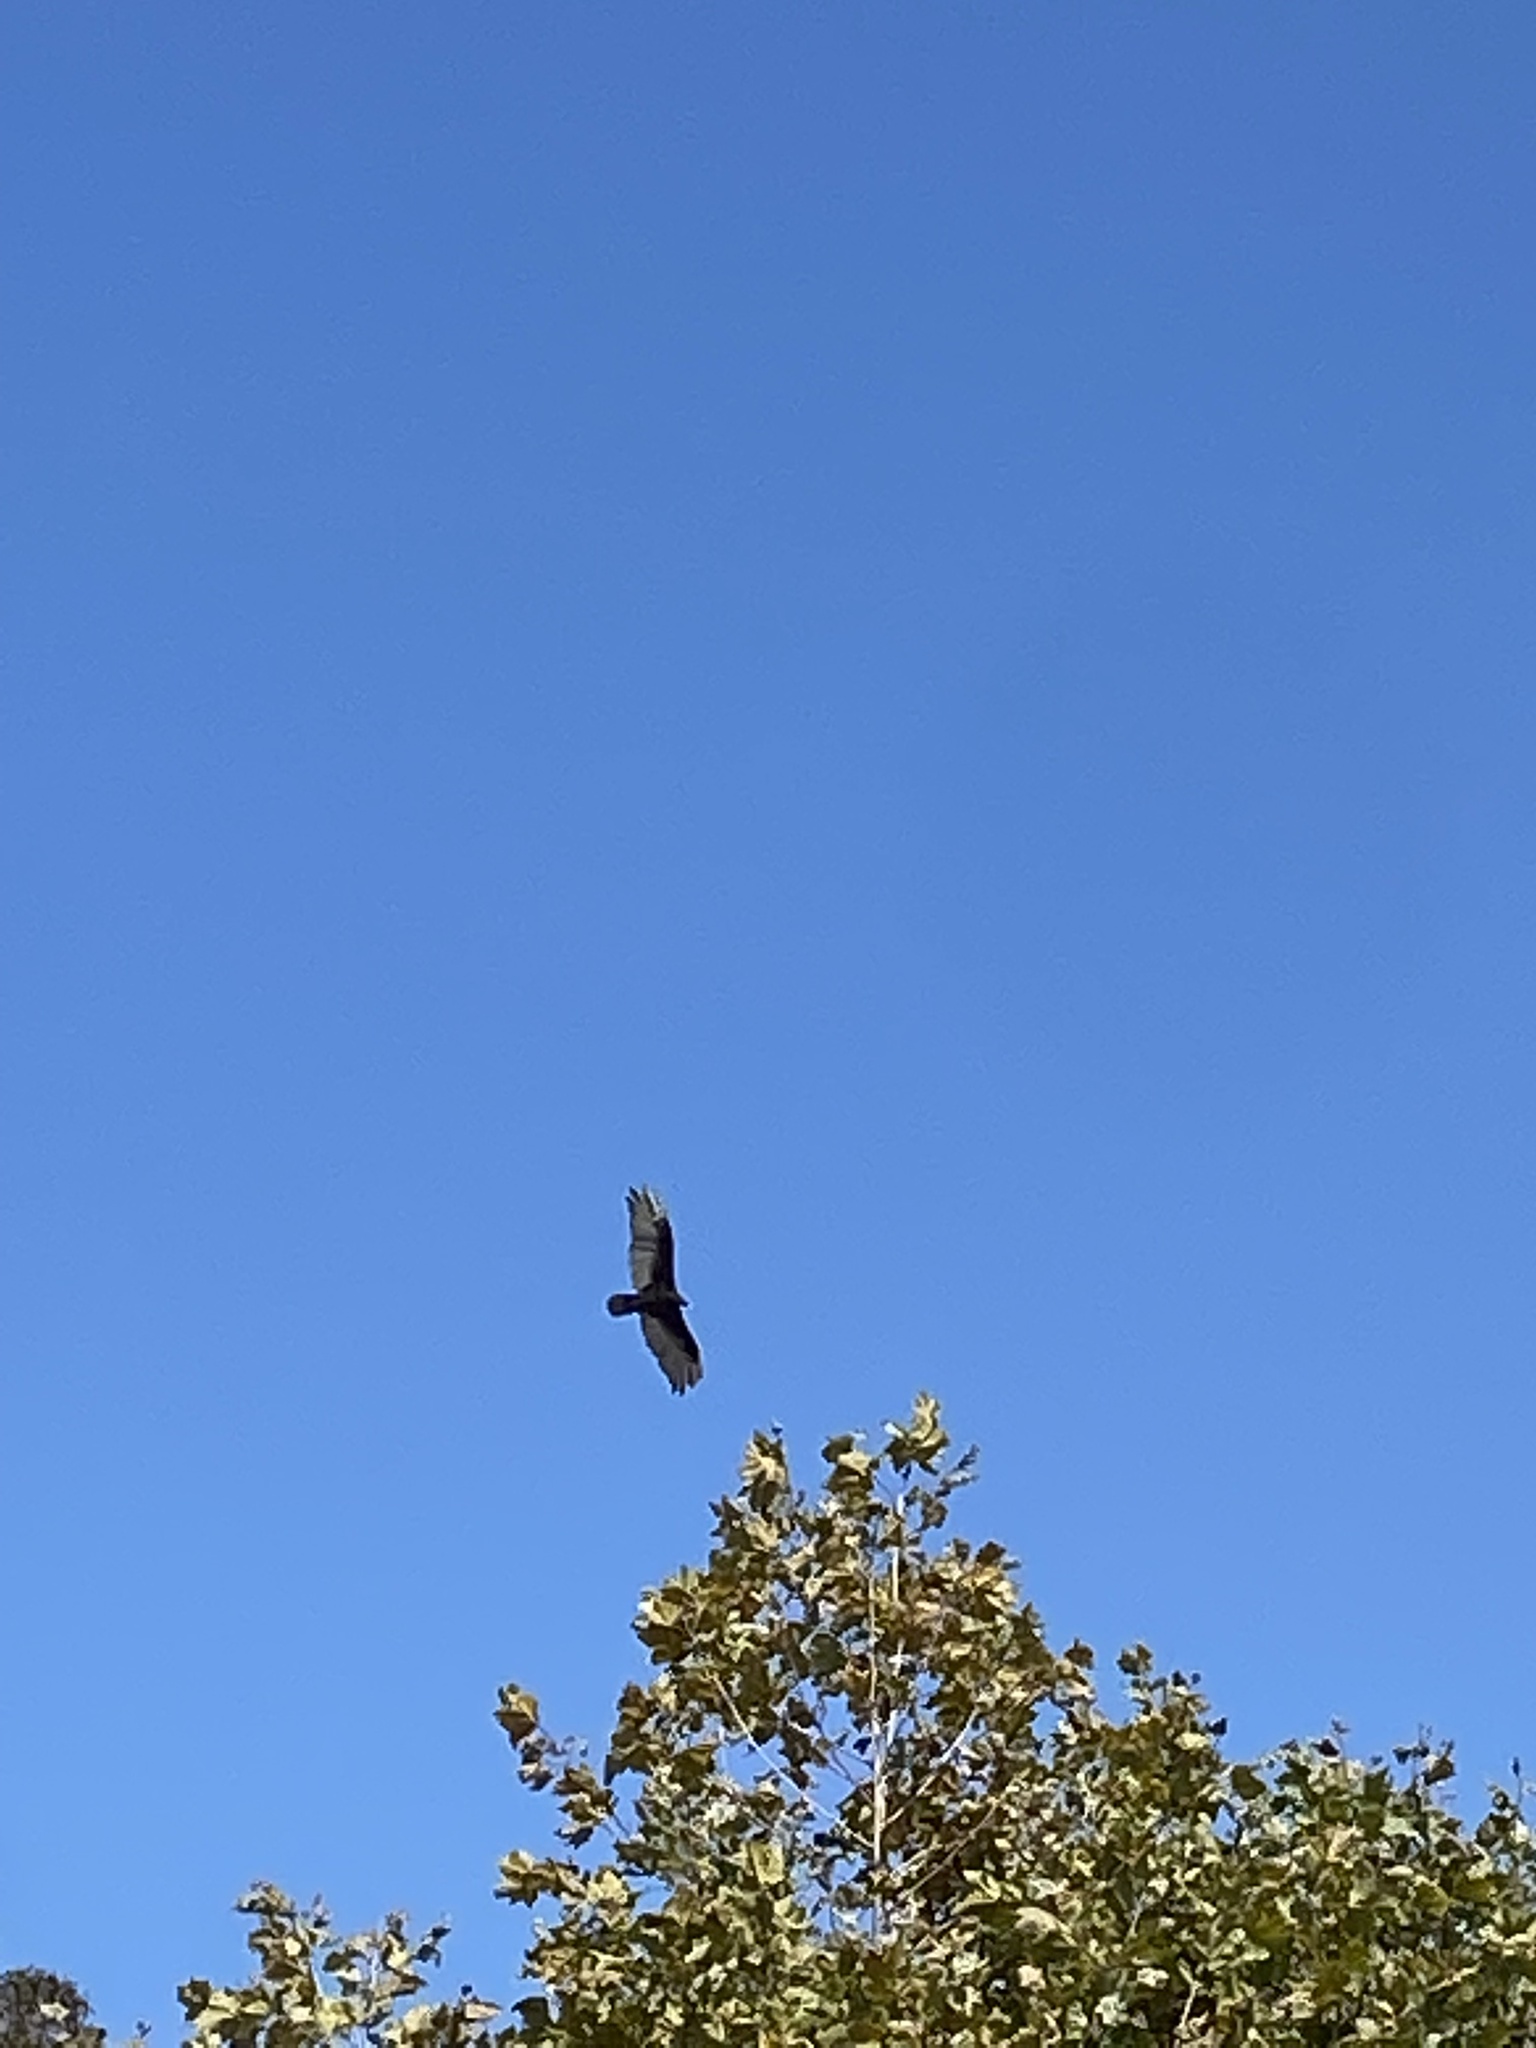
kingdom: Animalia
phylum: Chordata
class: Aves
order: Accipitriformes
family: Cathartidae
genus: Cathartes
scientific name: Cathartes aura
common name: Turkey vulture
